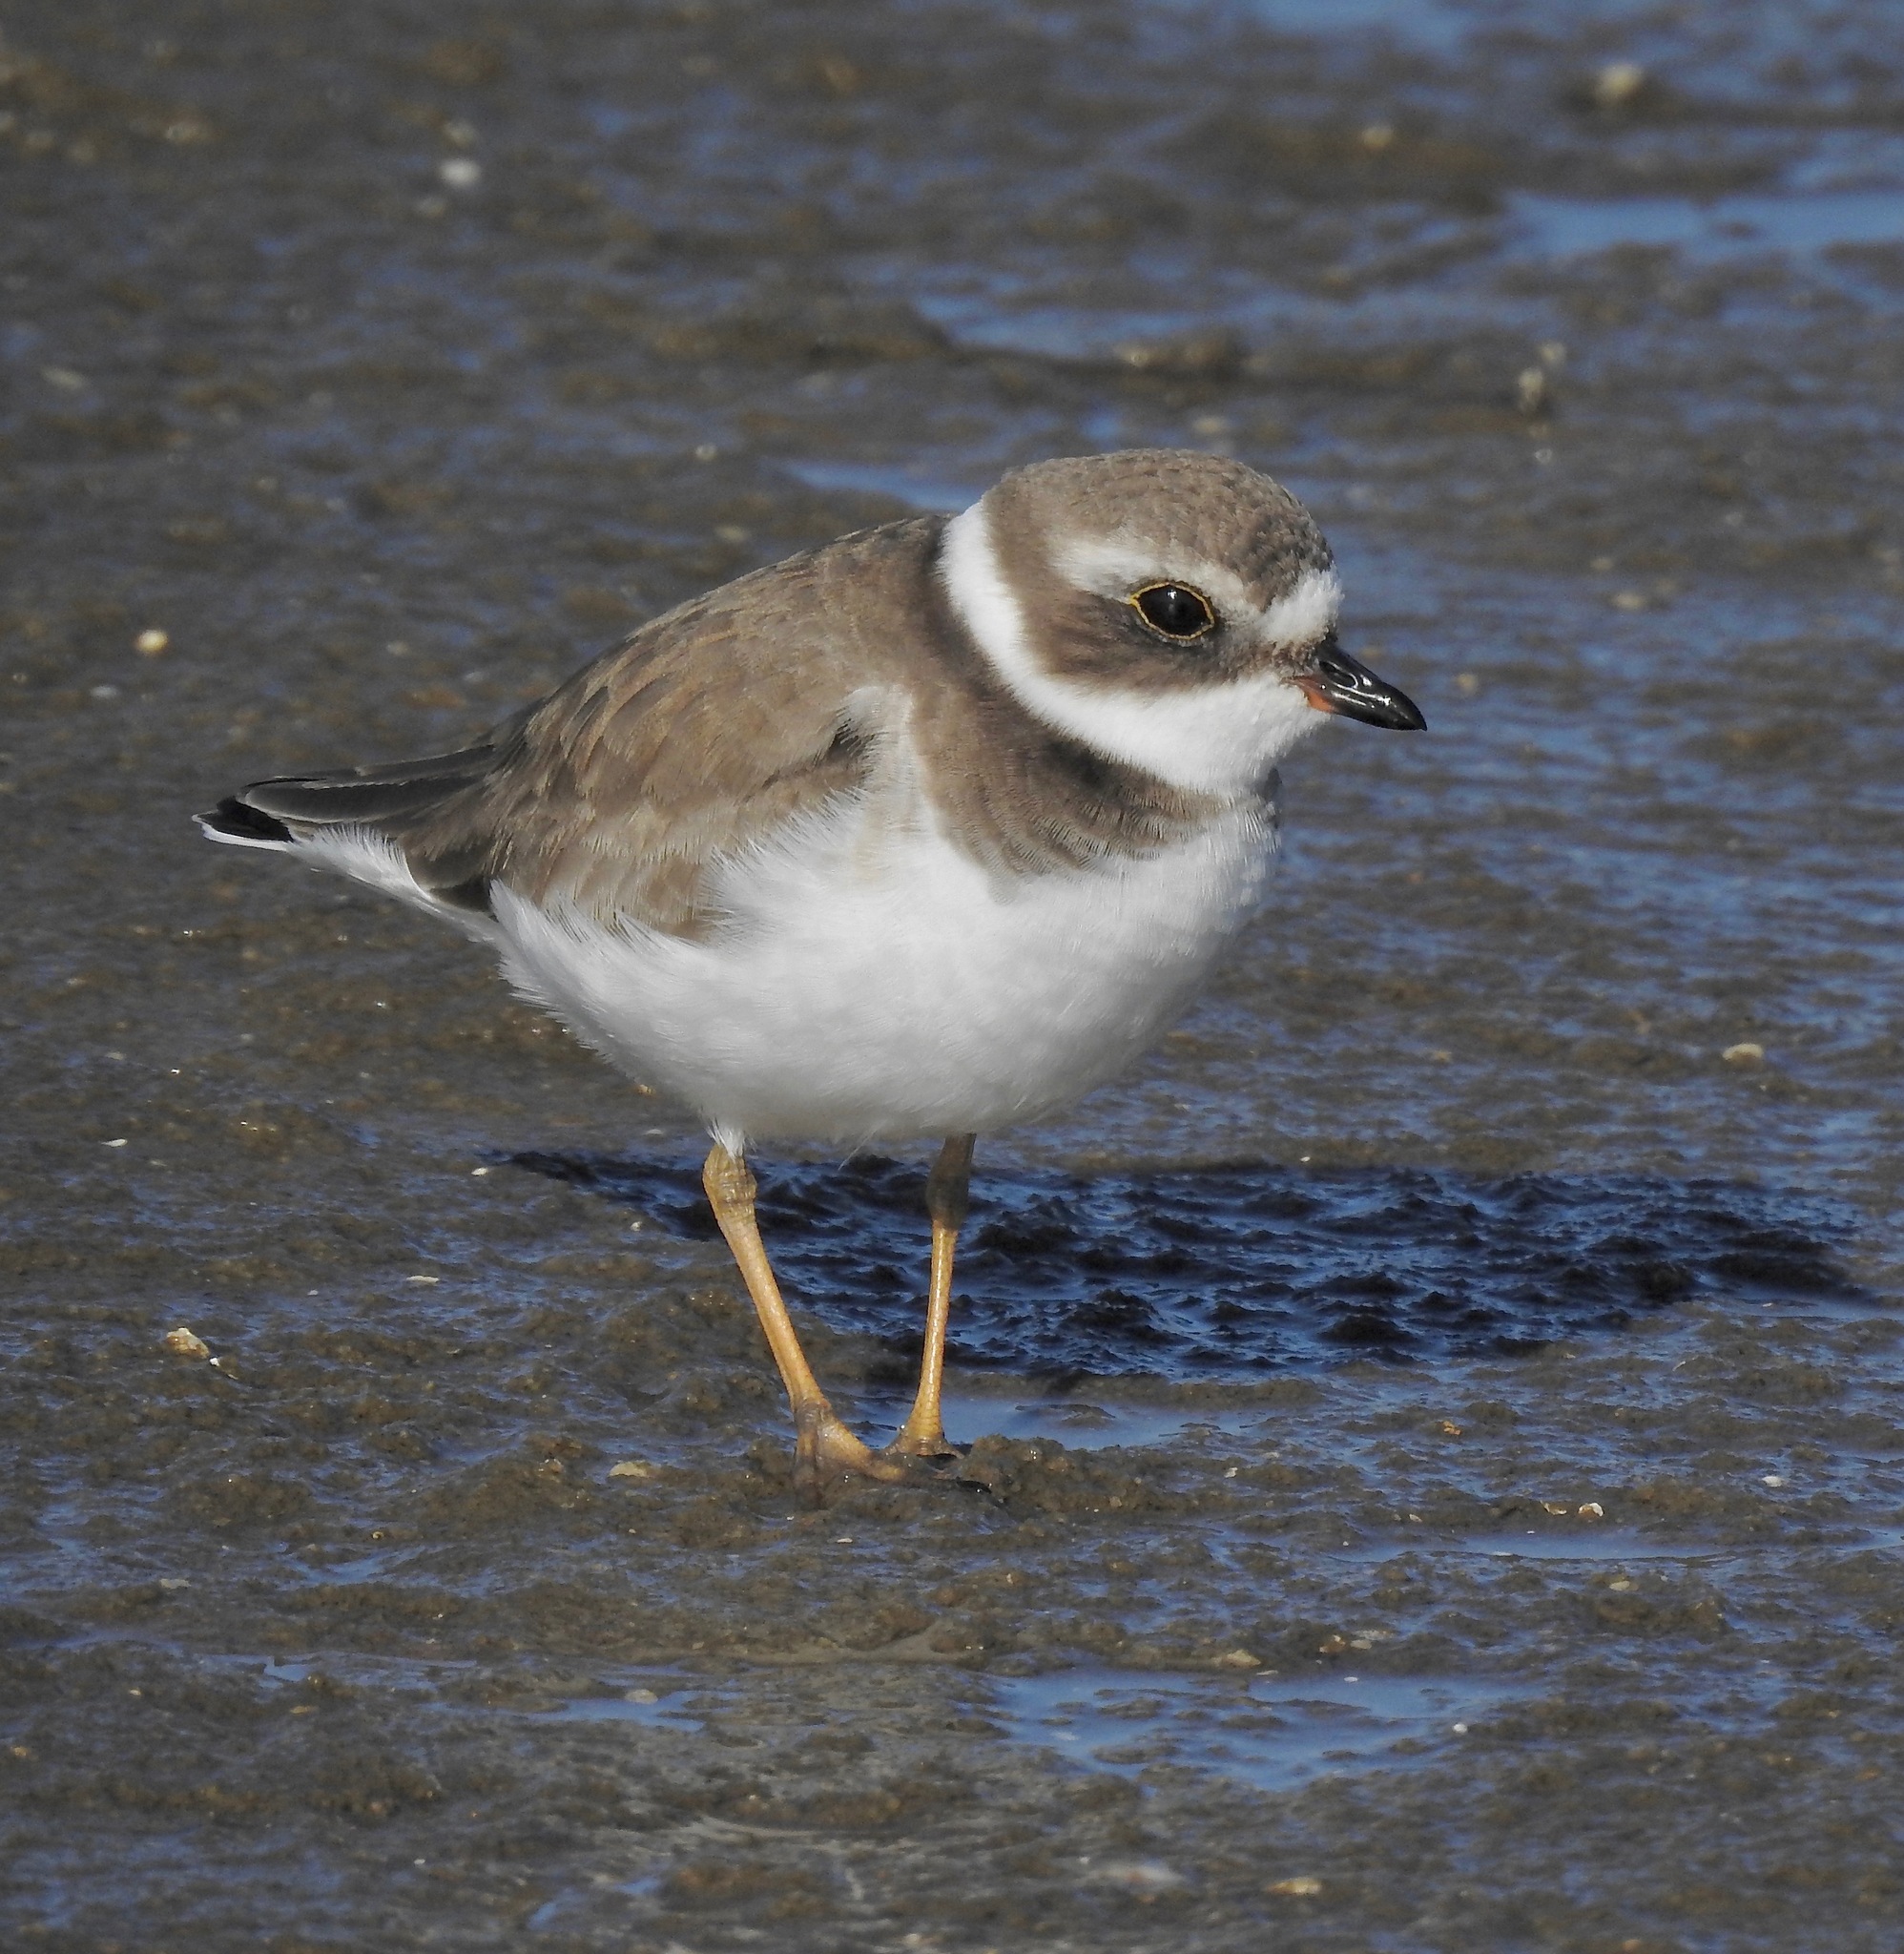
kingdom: Animalia
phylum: Chordata
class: Aves
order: Charadriiformes
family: Charadriidae
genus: Charadrius
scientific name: Charadrius semipalmatus
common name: Semipalmated plover
